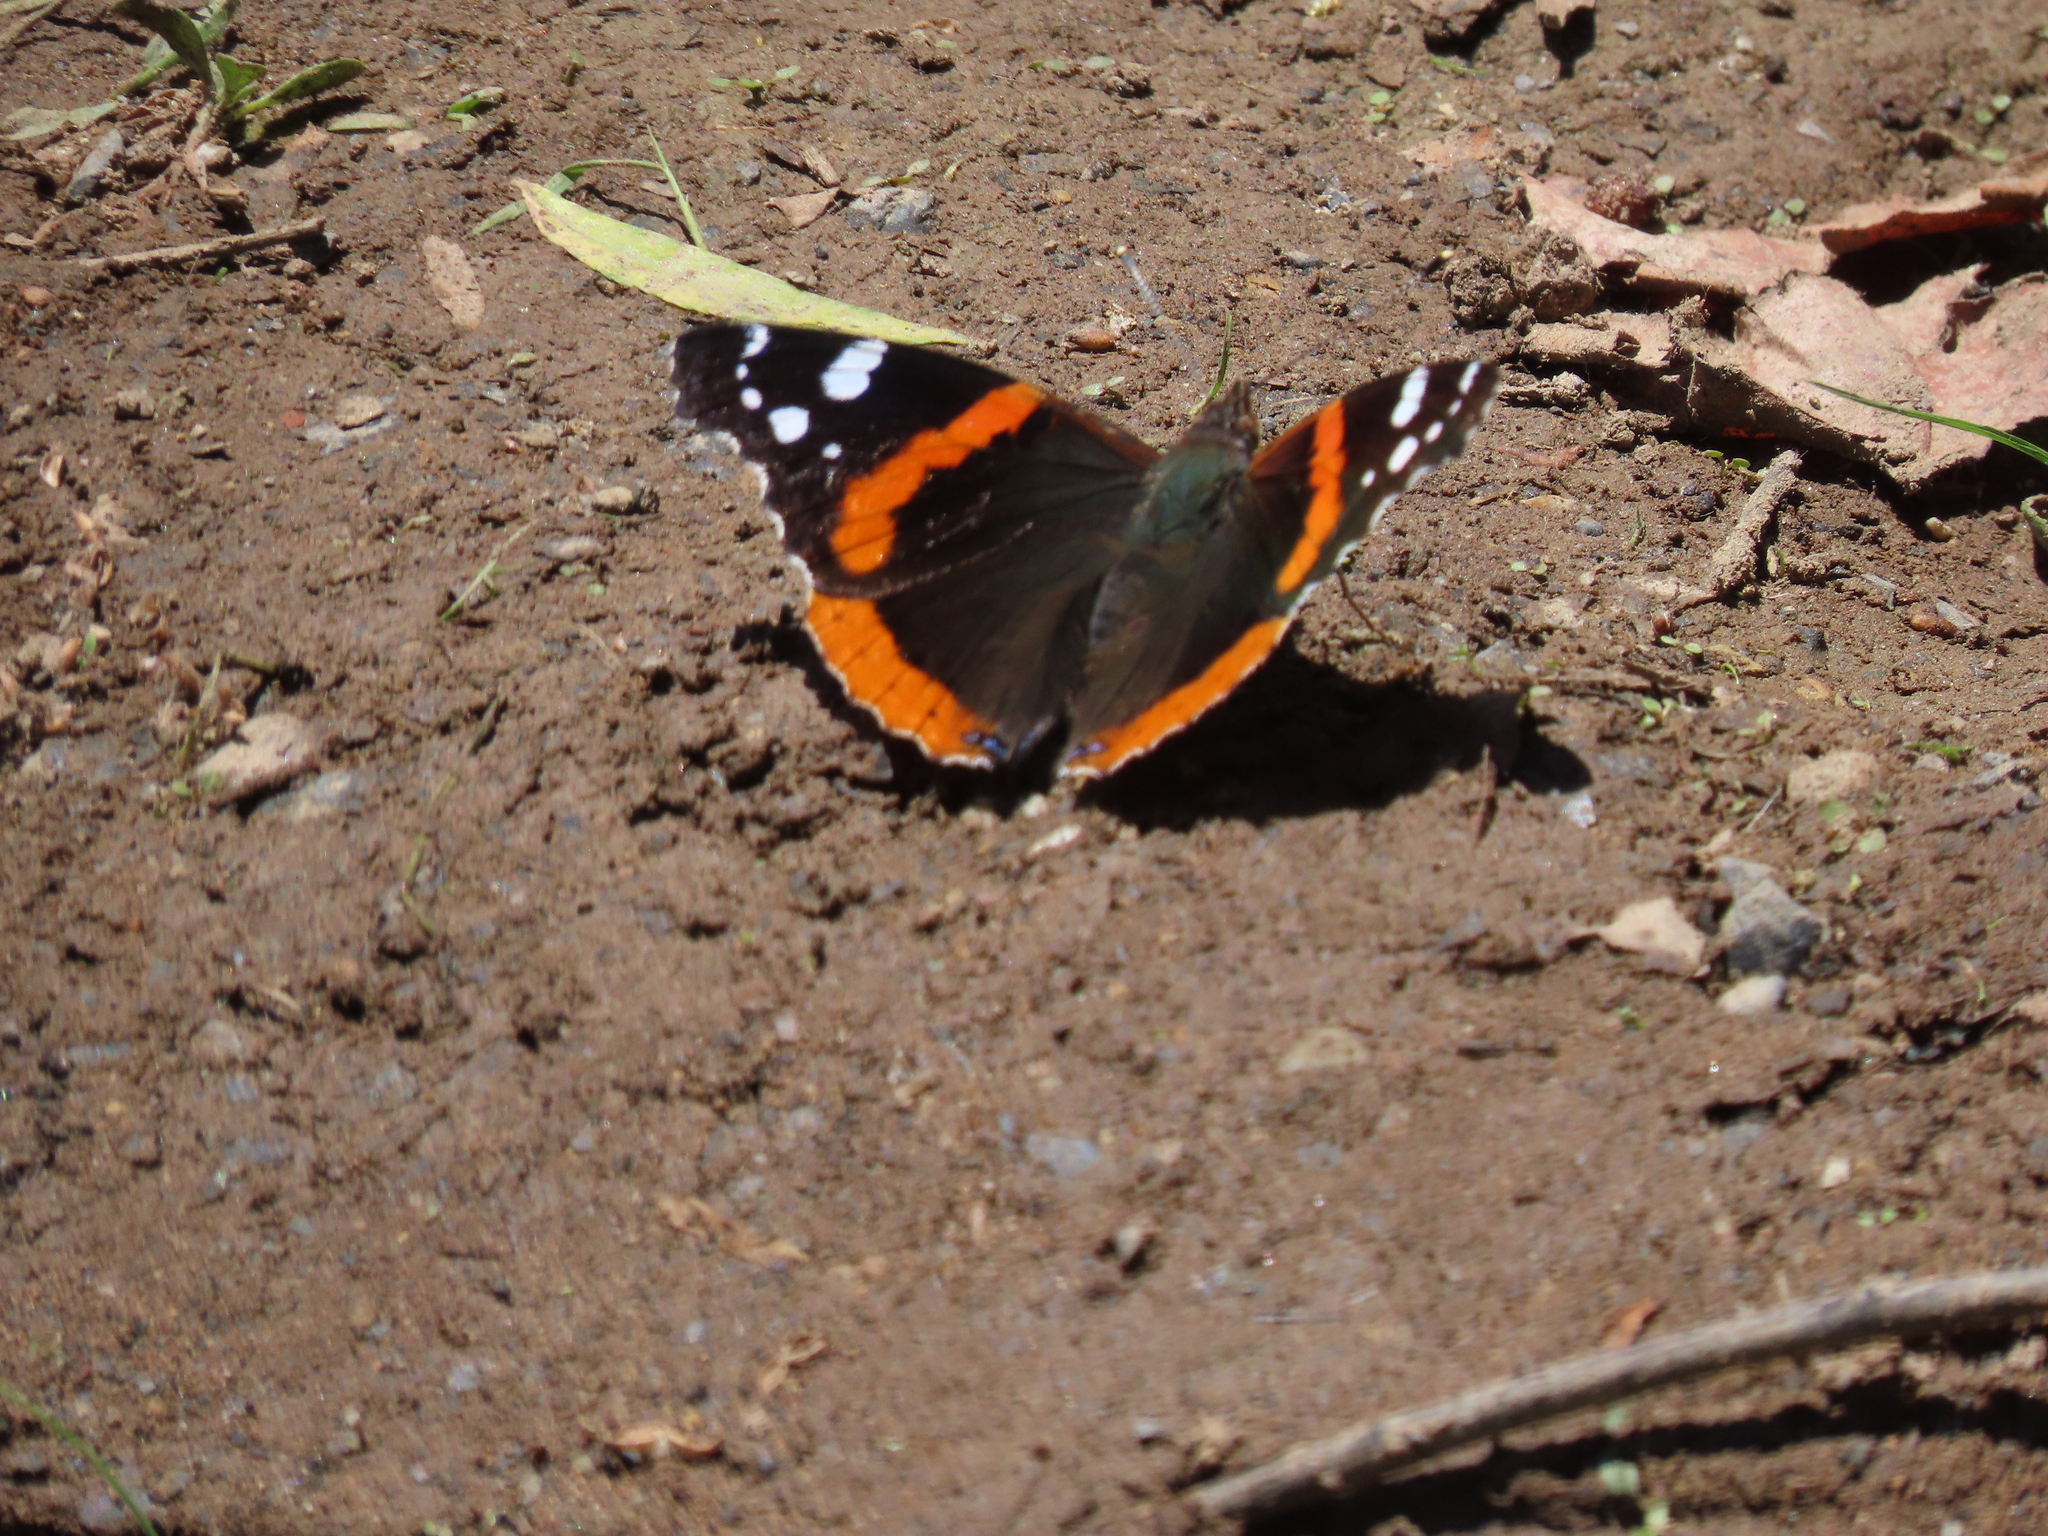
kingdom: Animalia
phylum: Arthropoda
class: Insecta
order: Lepidoptera
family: Nymphalidae
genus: Vanessa
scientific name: Vanessa atalanta
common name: Red admiral
